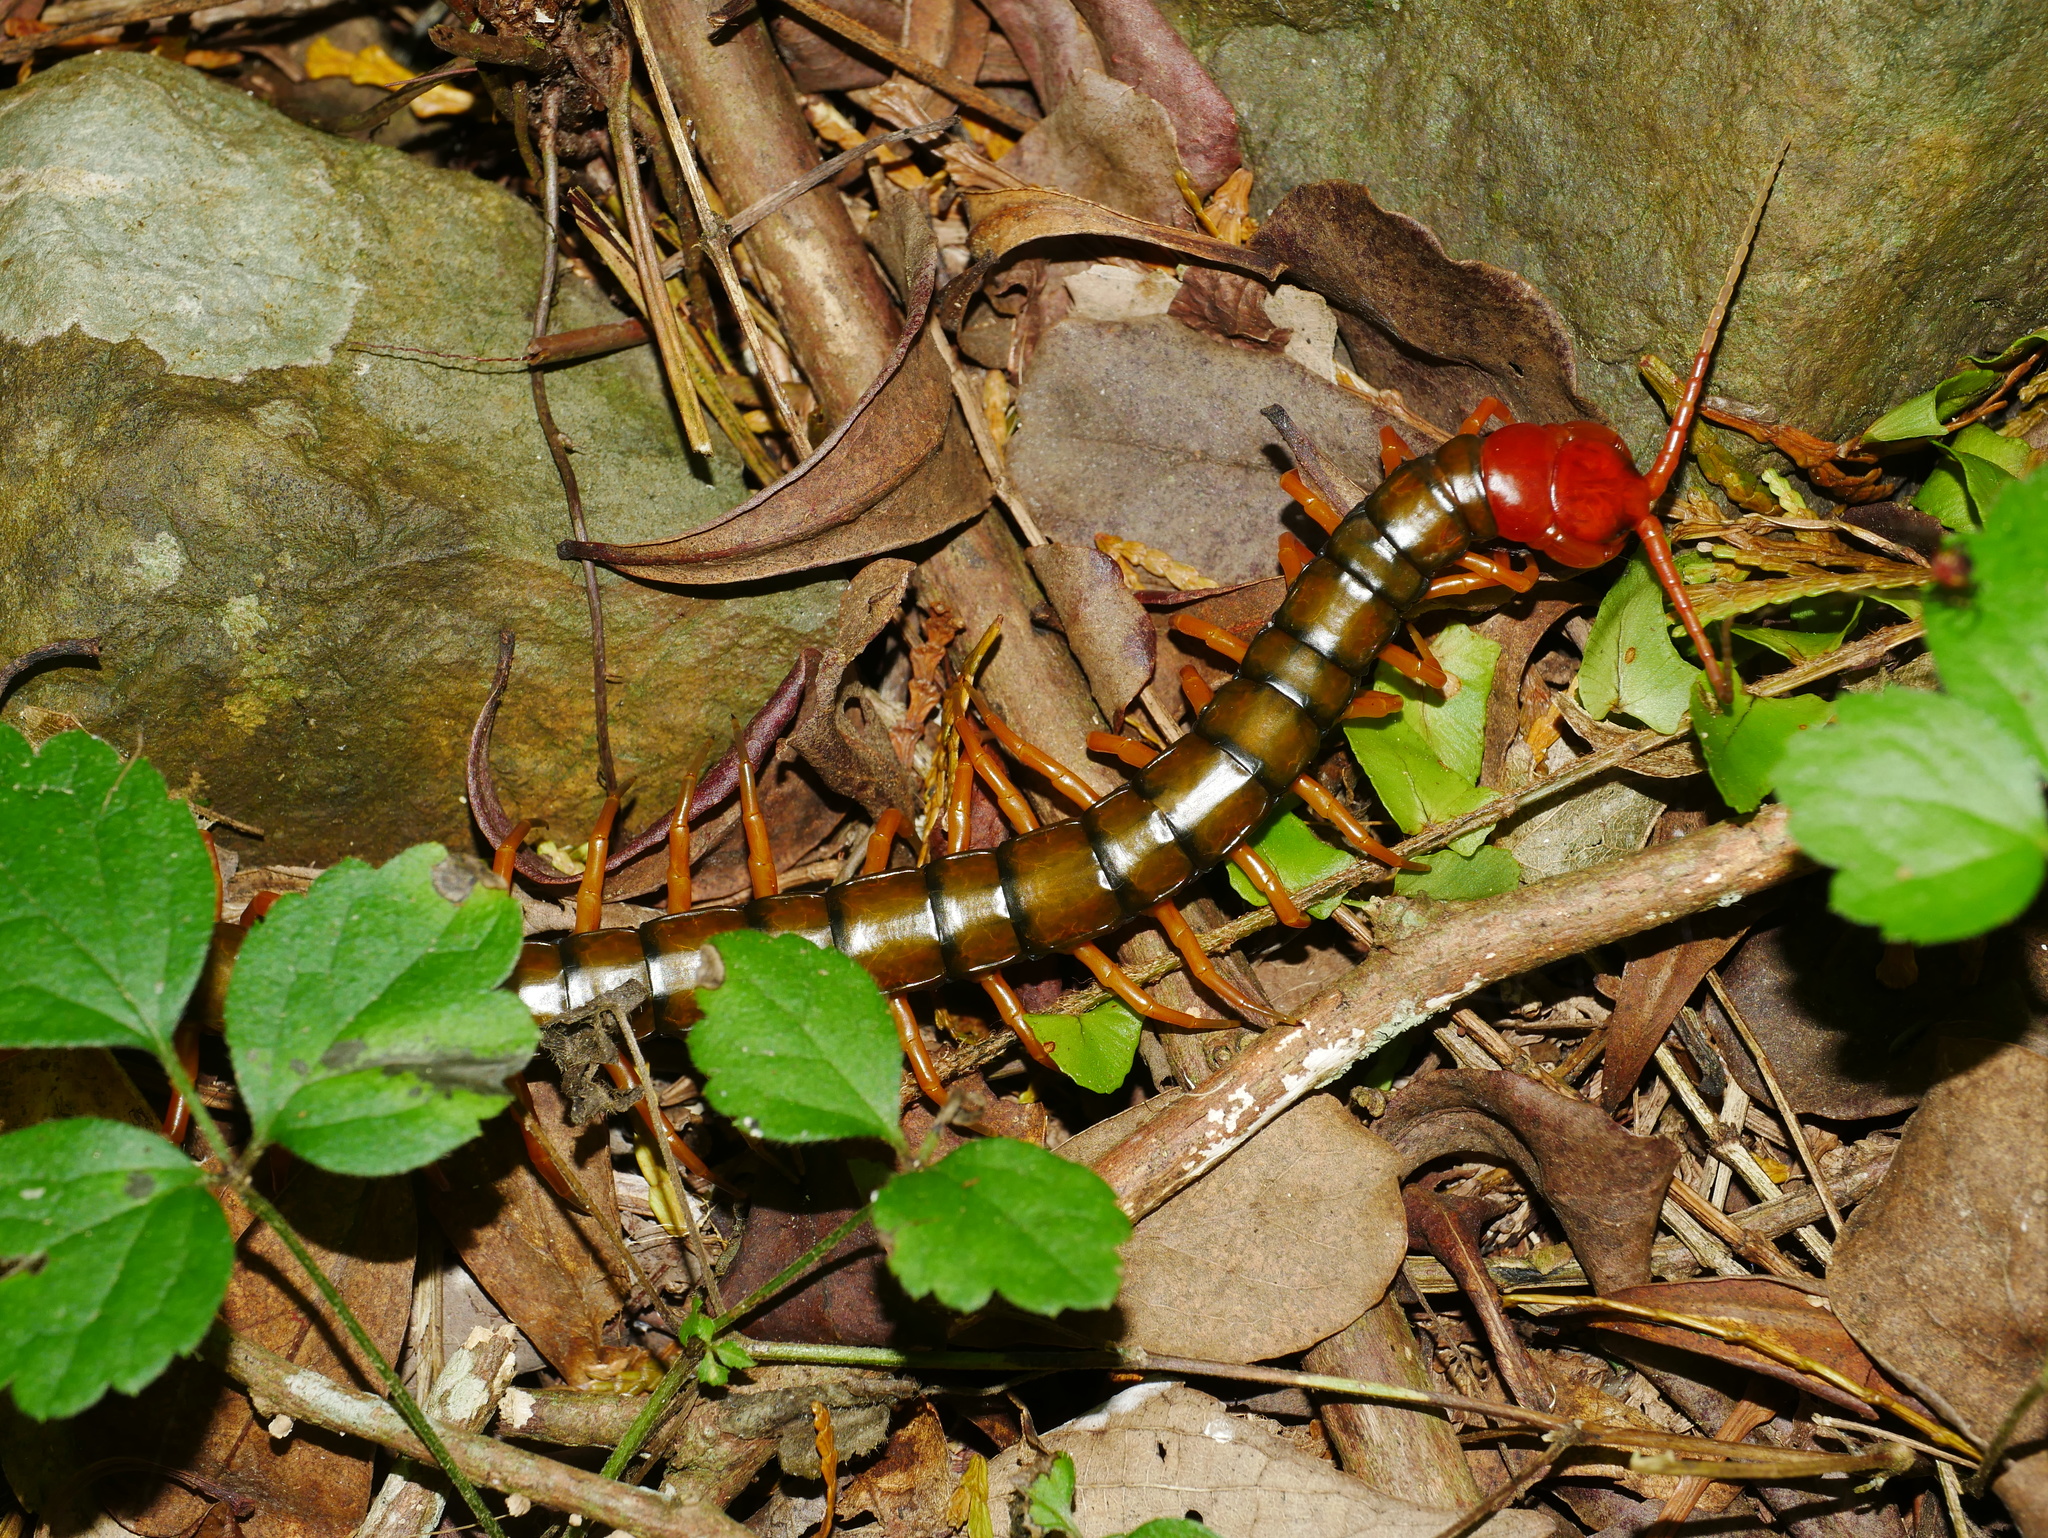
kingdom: Animalia
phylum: Arthropoda
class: Chilopoda
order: Scolopendromorpha
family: Scolopendridae
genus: Scolopendra
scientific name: Scolopendra mutilans
